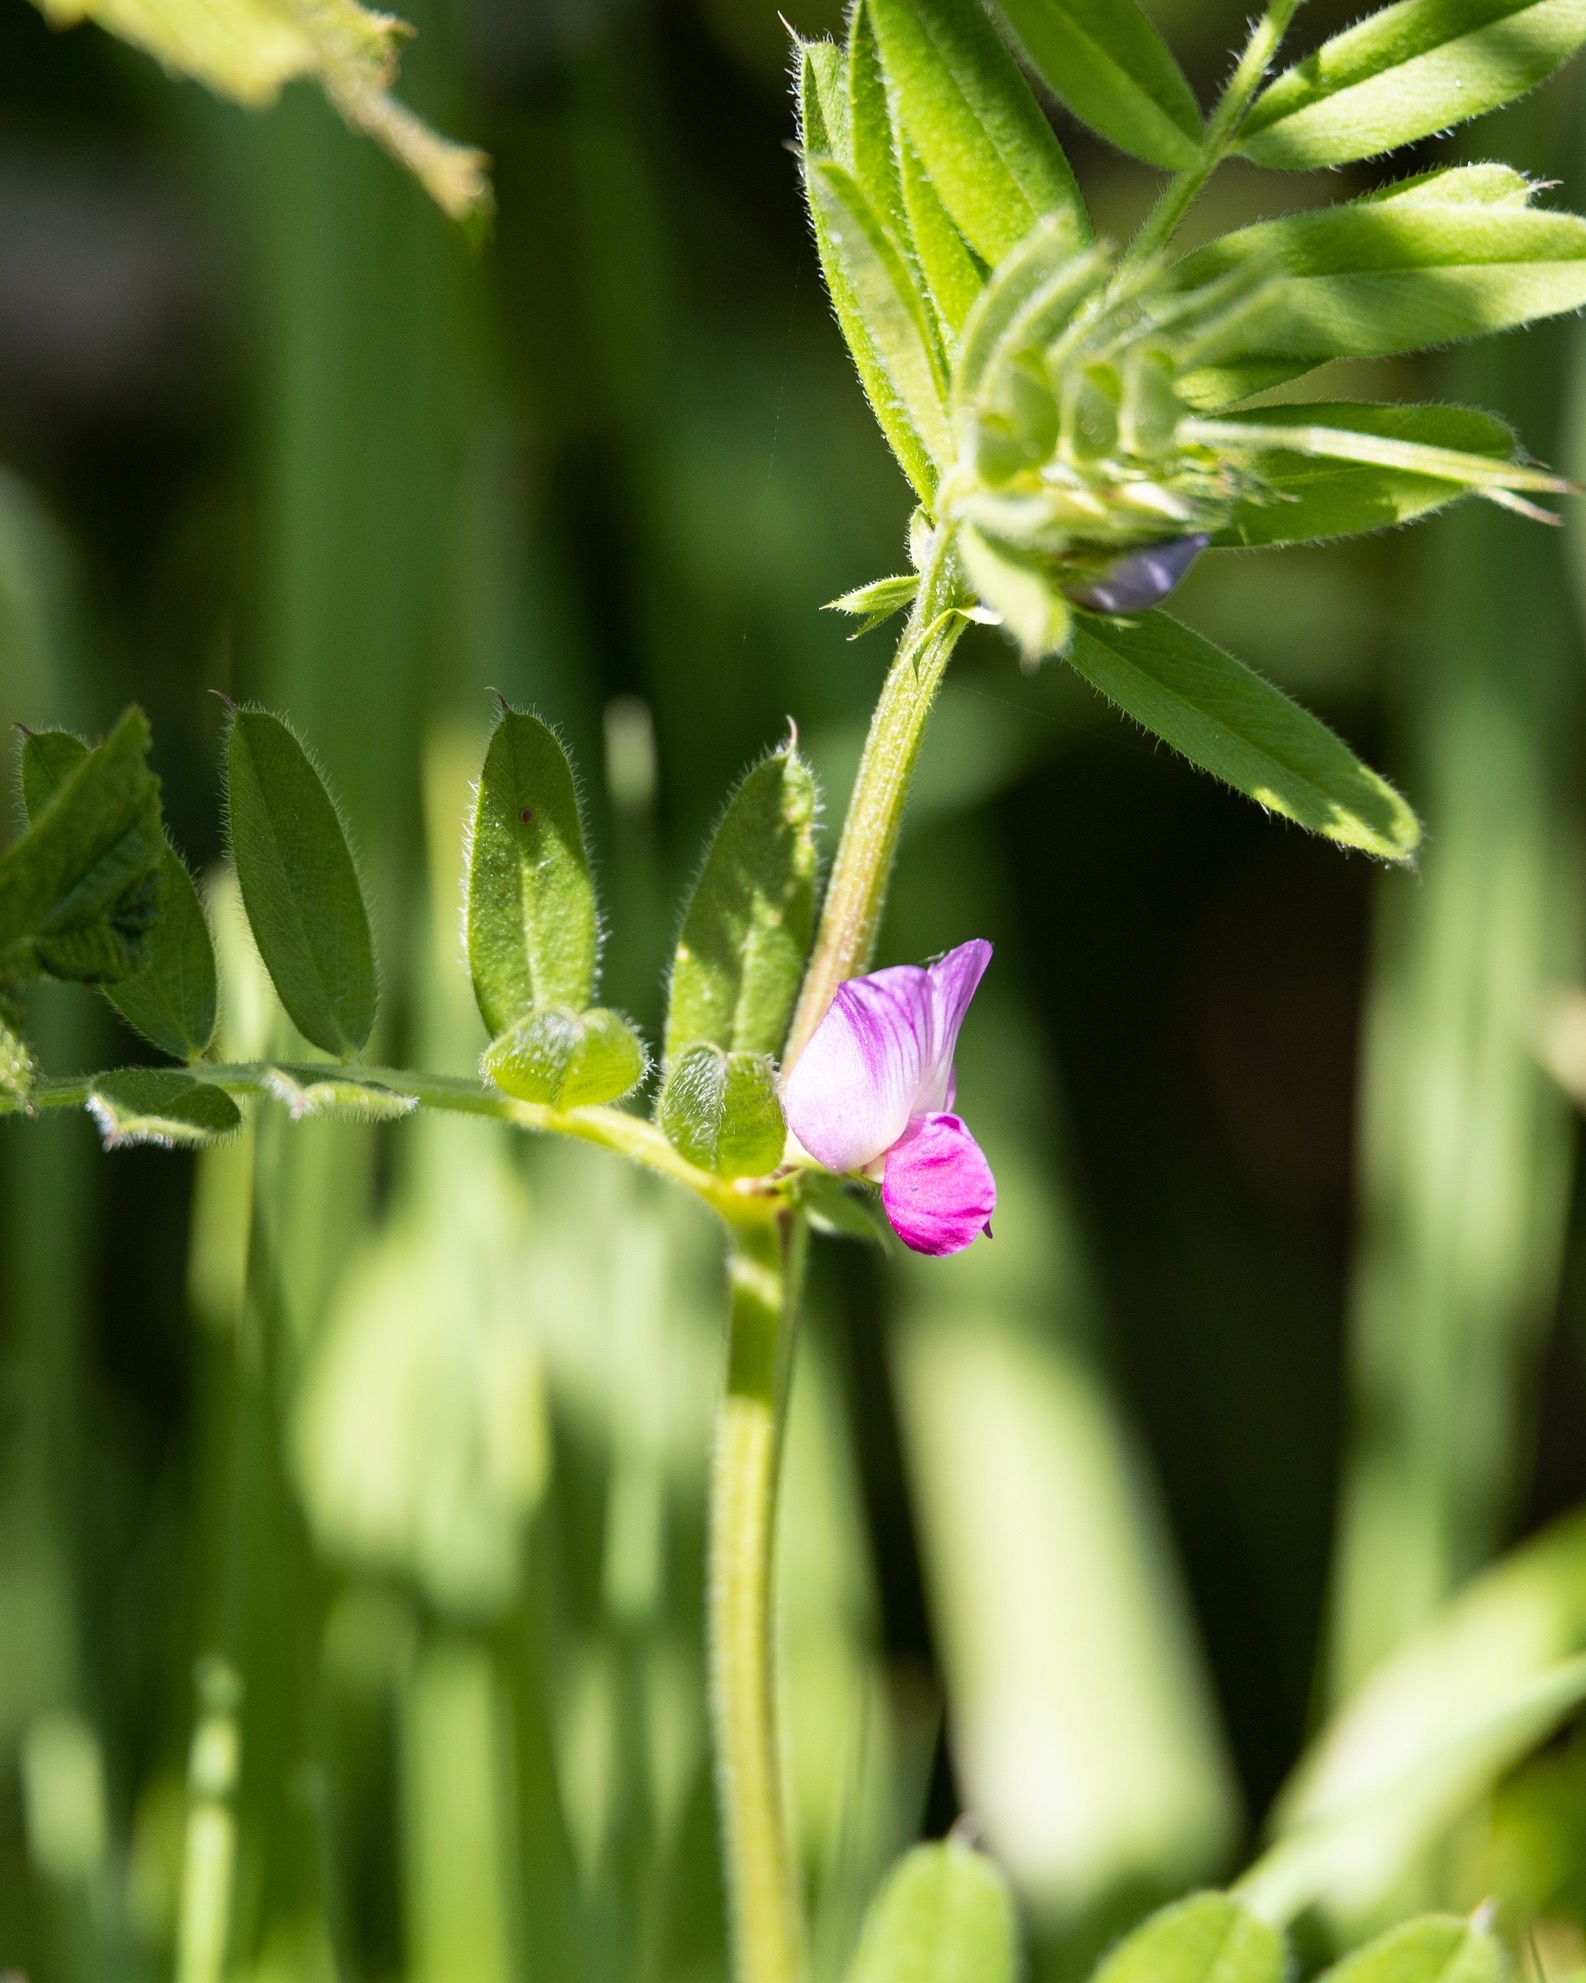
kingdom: Plantae
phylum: Tracheophyta
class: Magnoliopsida
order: Fabales
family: Fabaceae
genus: Vicia
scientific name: Vicia sativa
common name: Garden vetch
